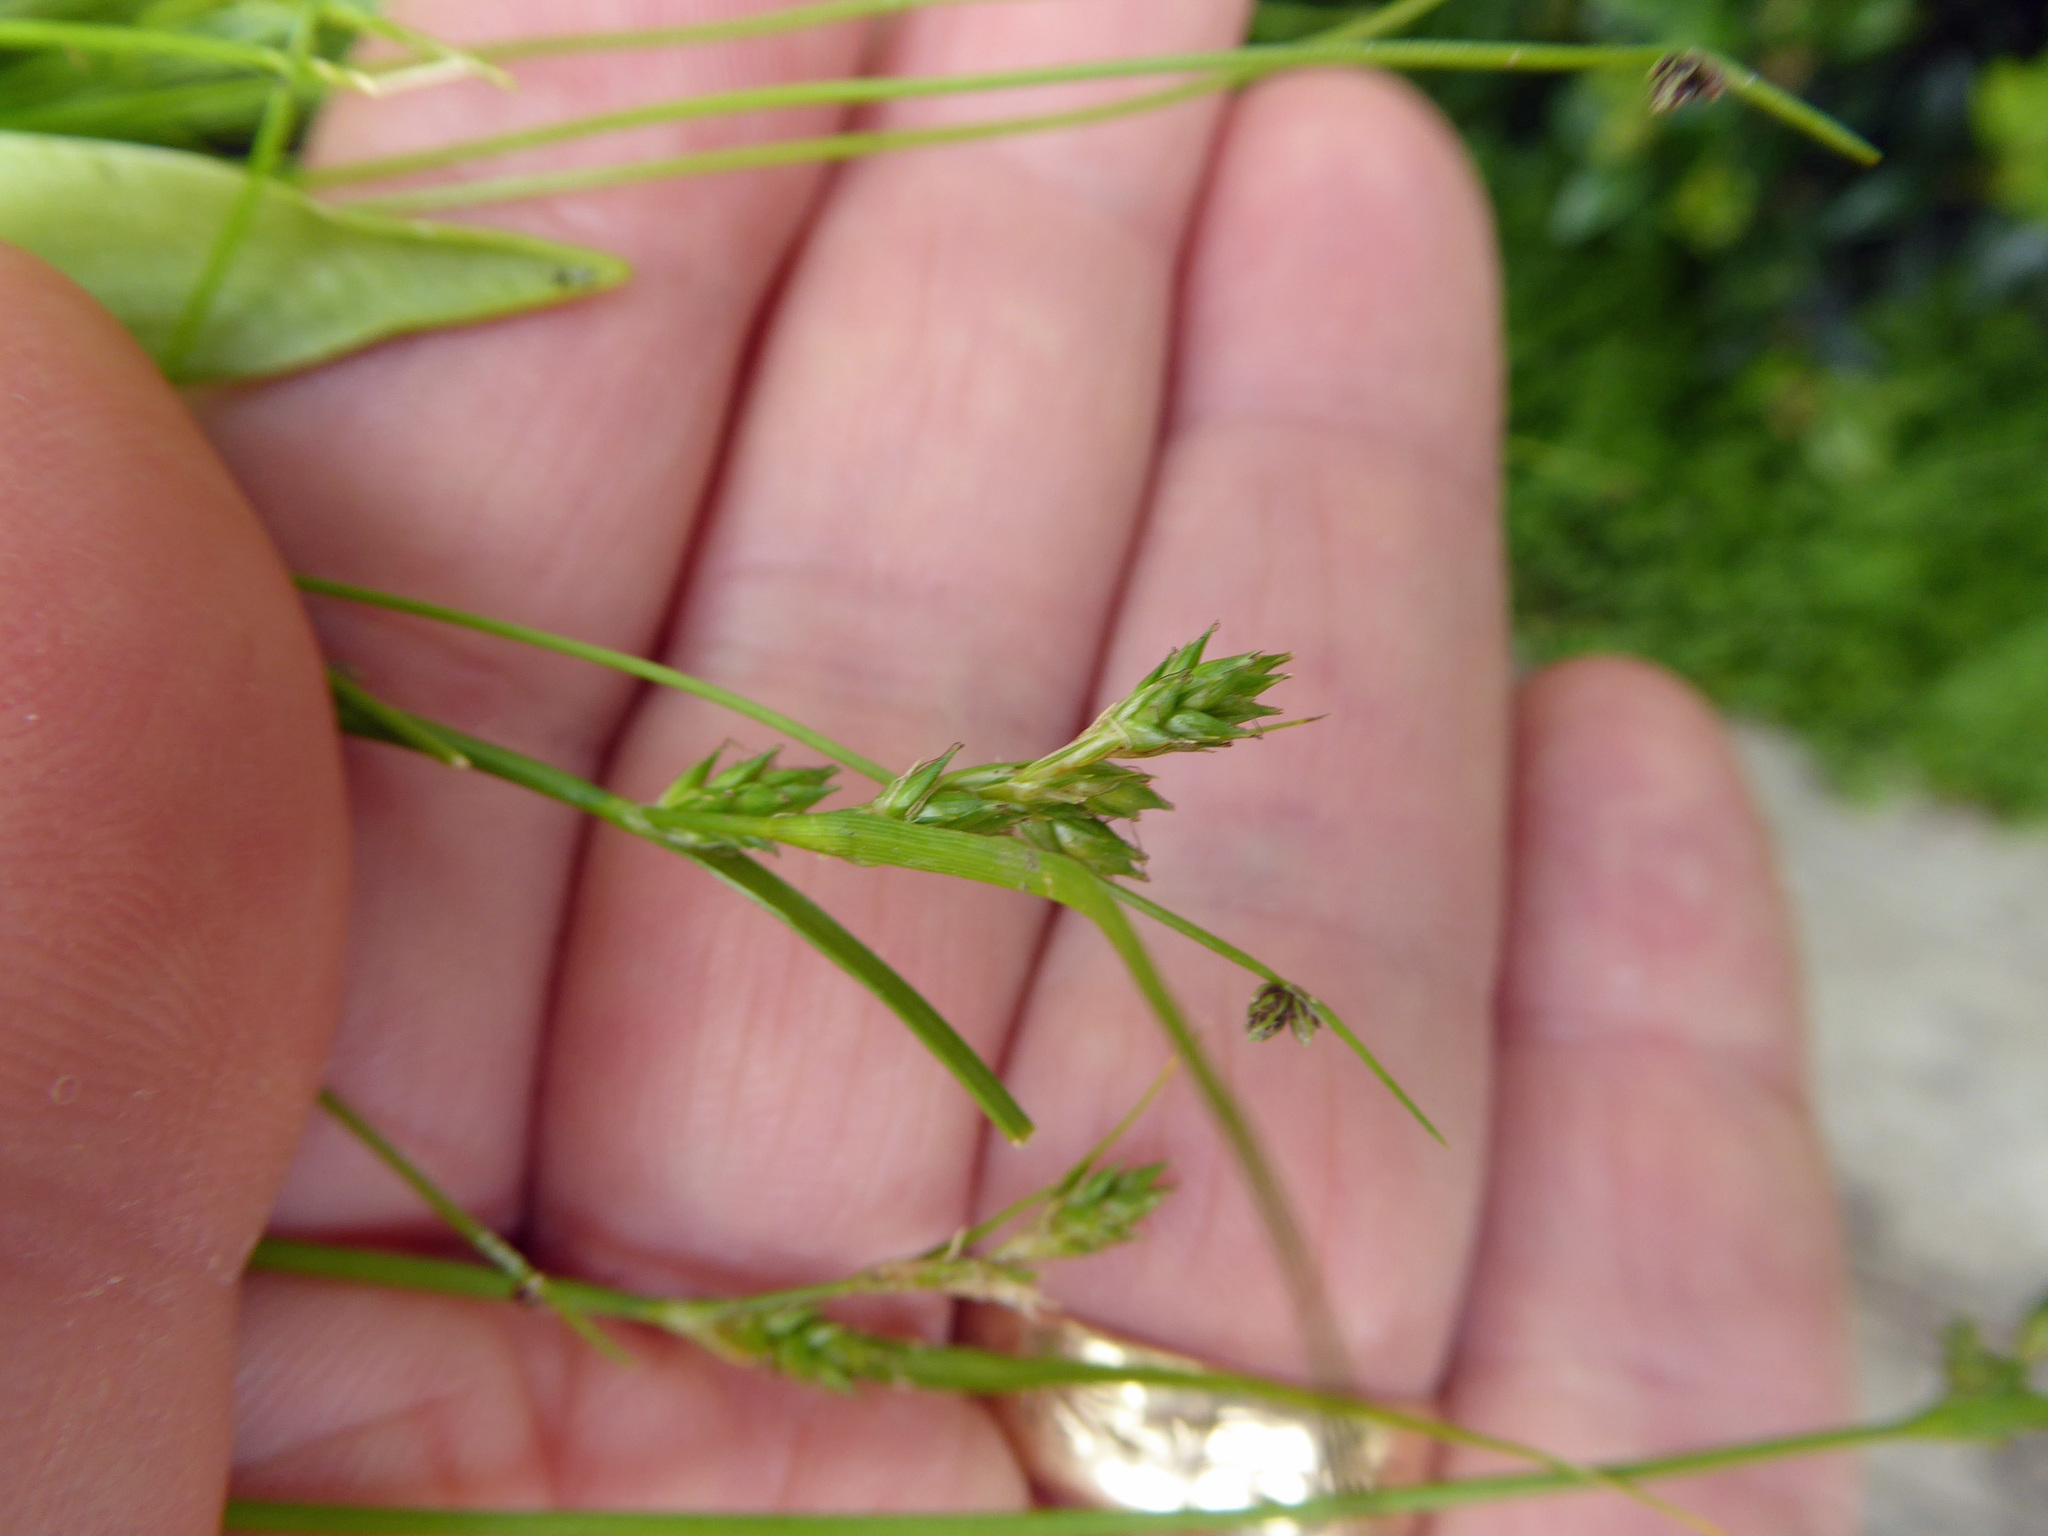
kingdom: Plantae
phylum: Tracheophyta
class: Liliopsida
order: Poales
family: Cyperaceae
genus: Carex
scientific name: Carex inversa
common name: Knob sedge
